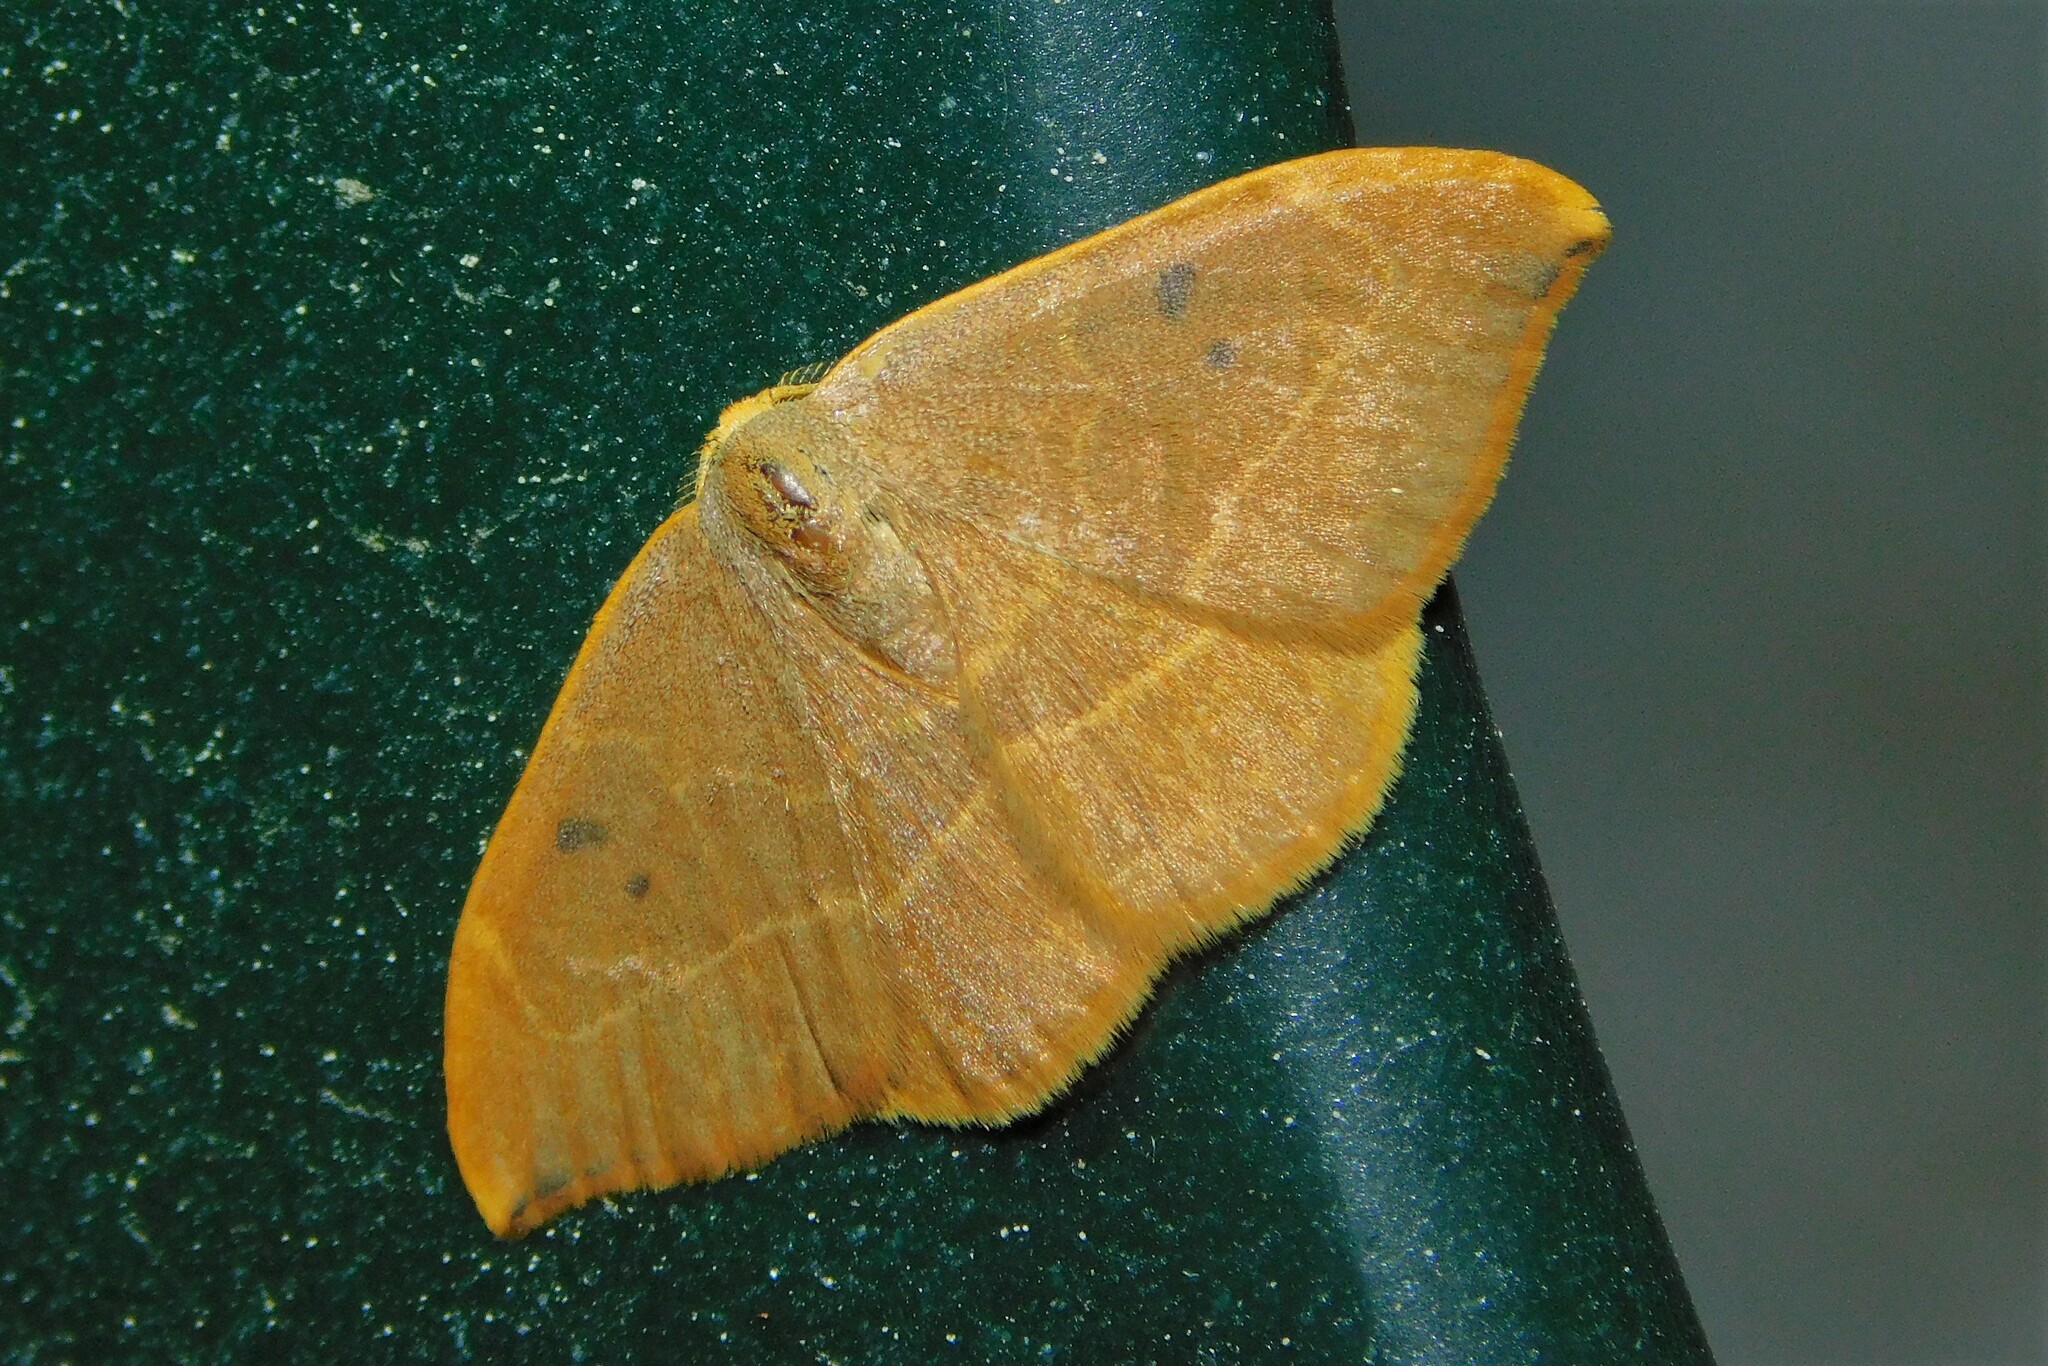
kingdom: Animalia
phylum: Arthropoda
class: Insecta
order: Lepidoptera
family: Drepanidae
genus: Watsonalla
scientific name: Watsonalla binaria
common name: Oak hook-tip
